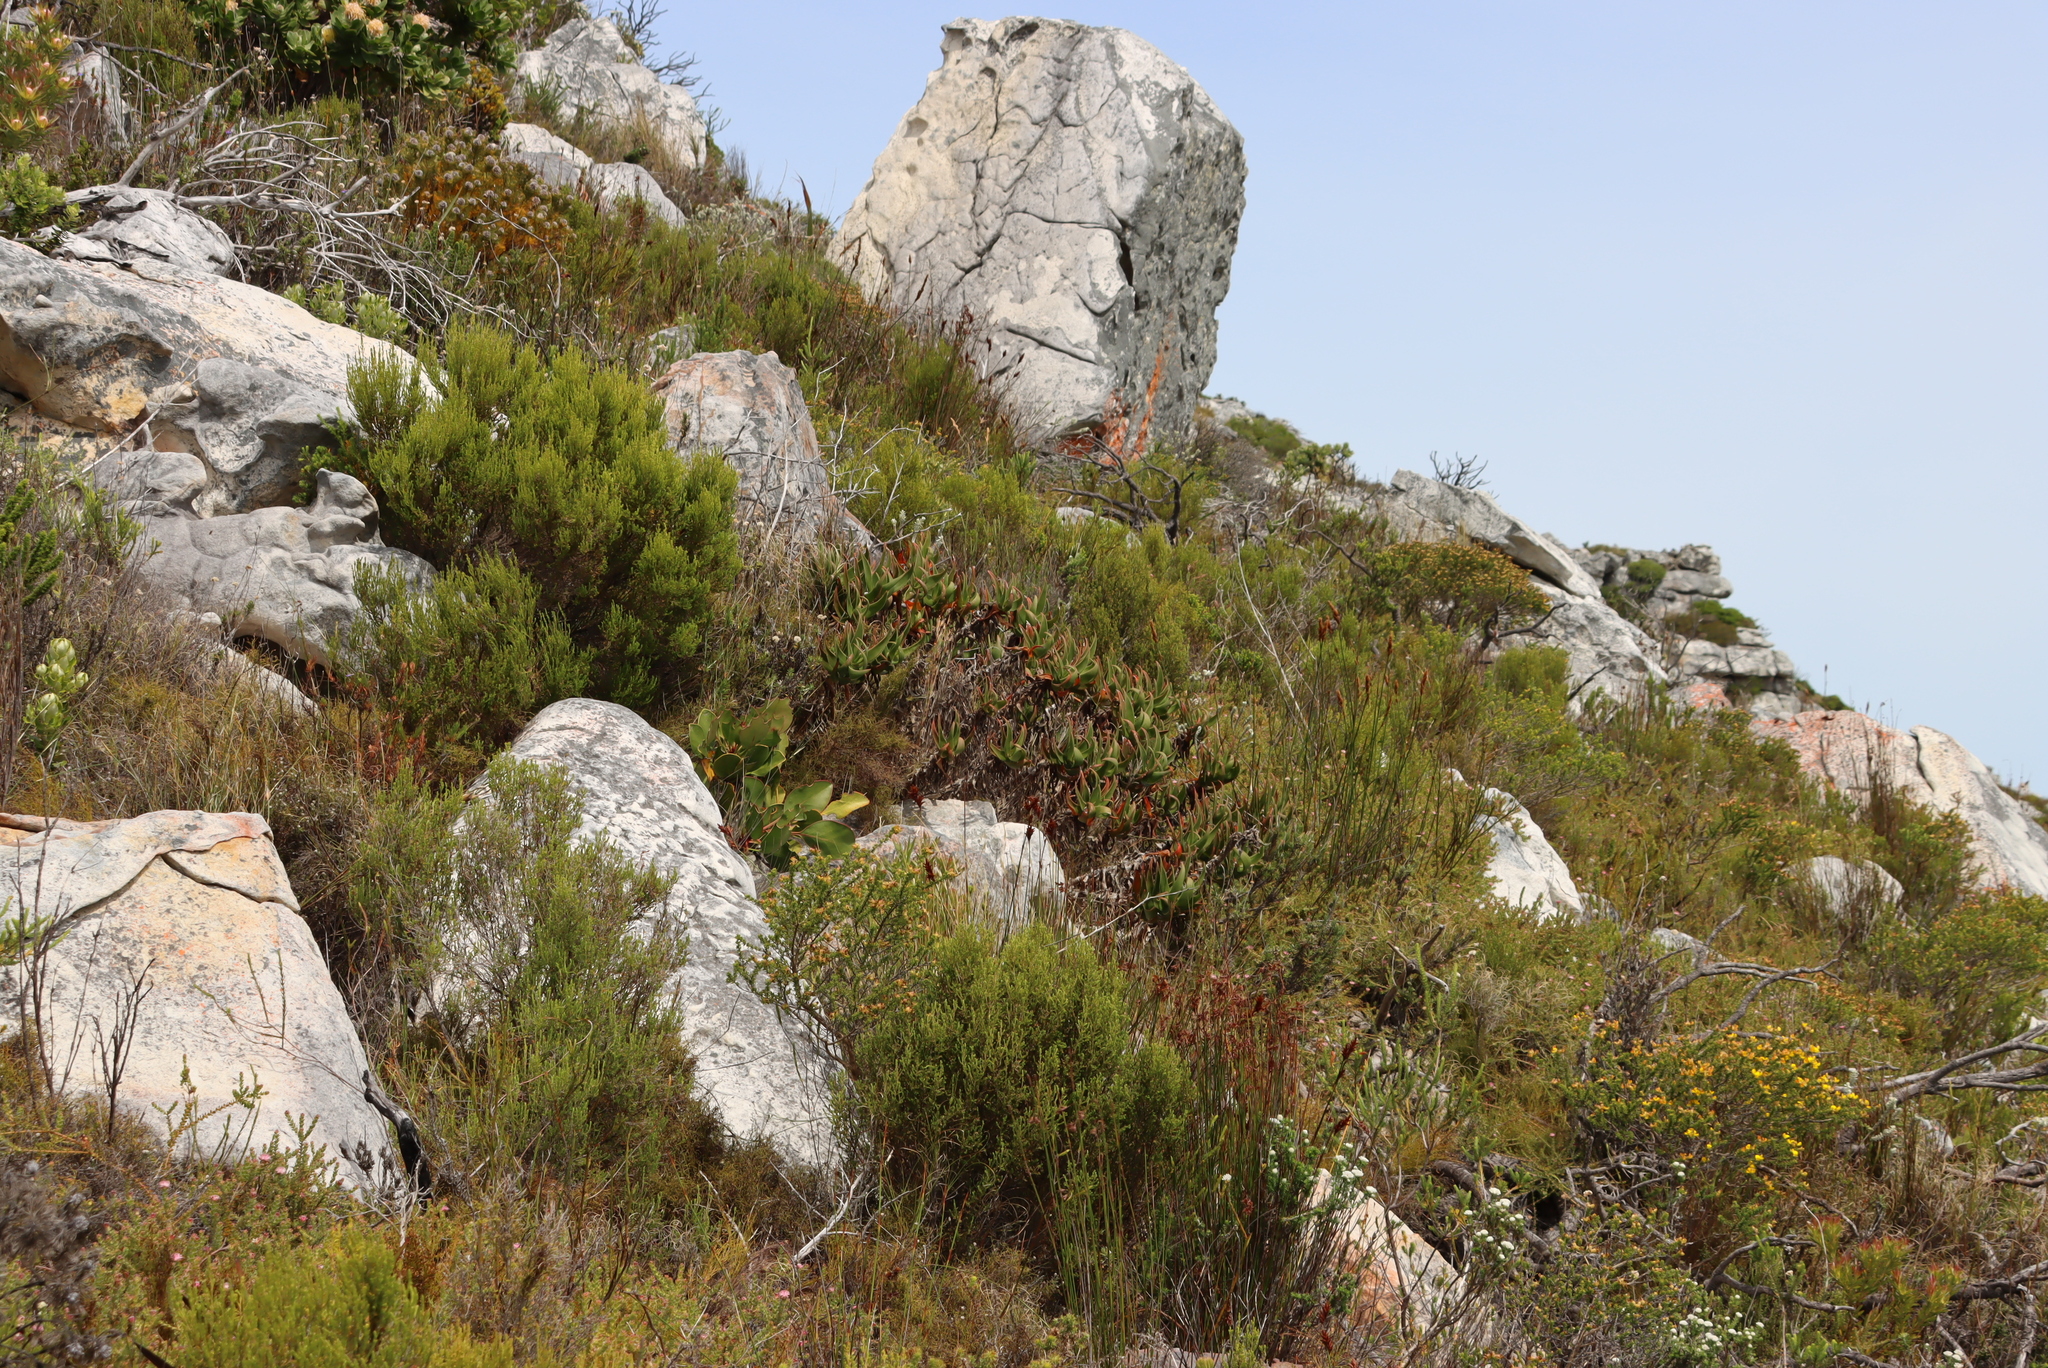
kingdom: Plantae
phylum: Tracheophyta
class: Liliopsida
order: Asparagales
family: Asphodelaceae
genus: Aloiampelos
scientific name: Aloiampelos commixta
